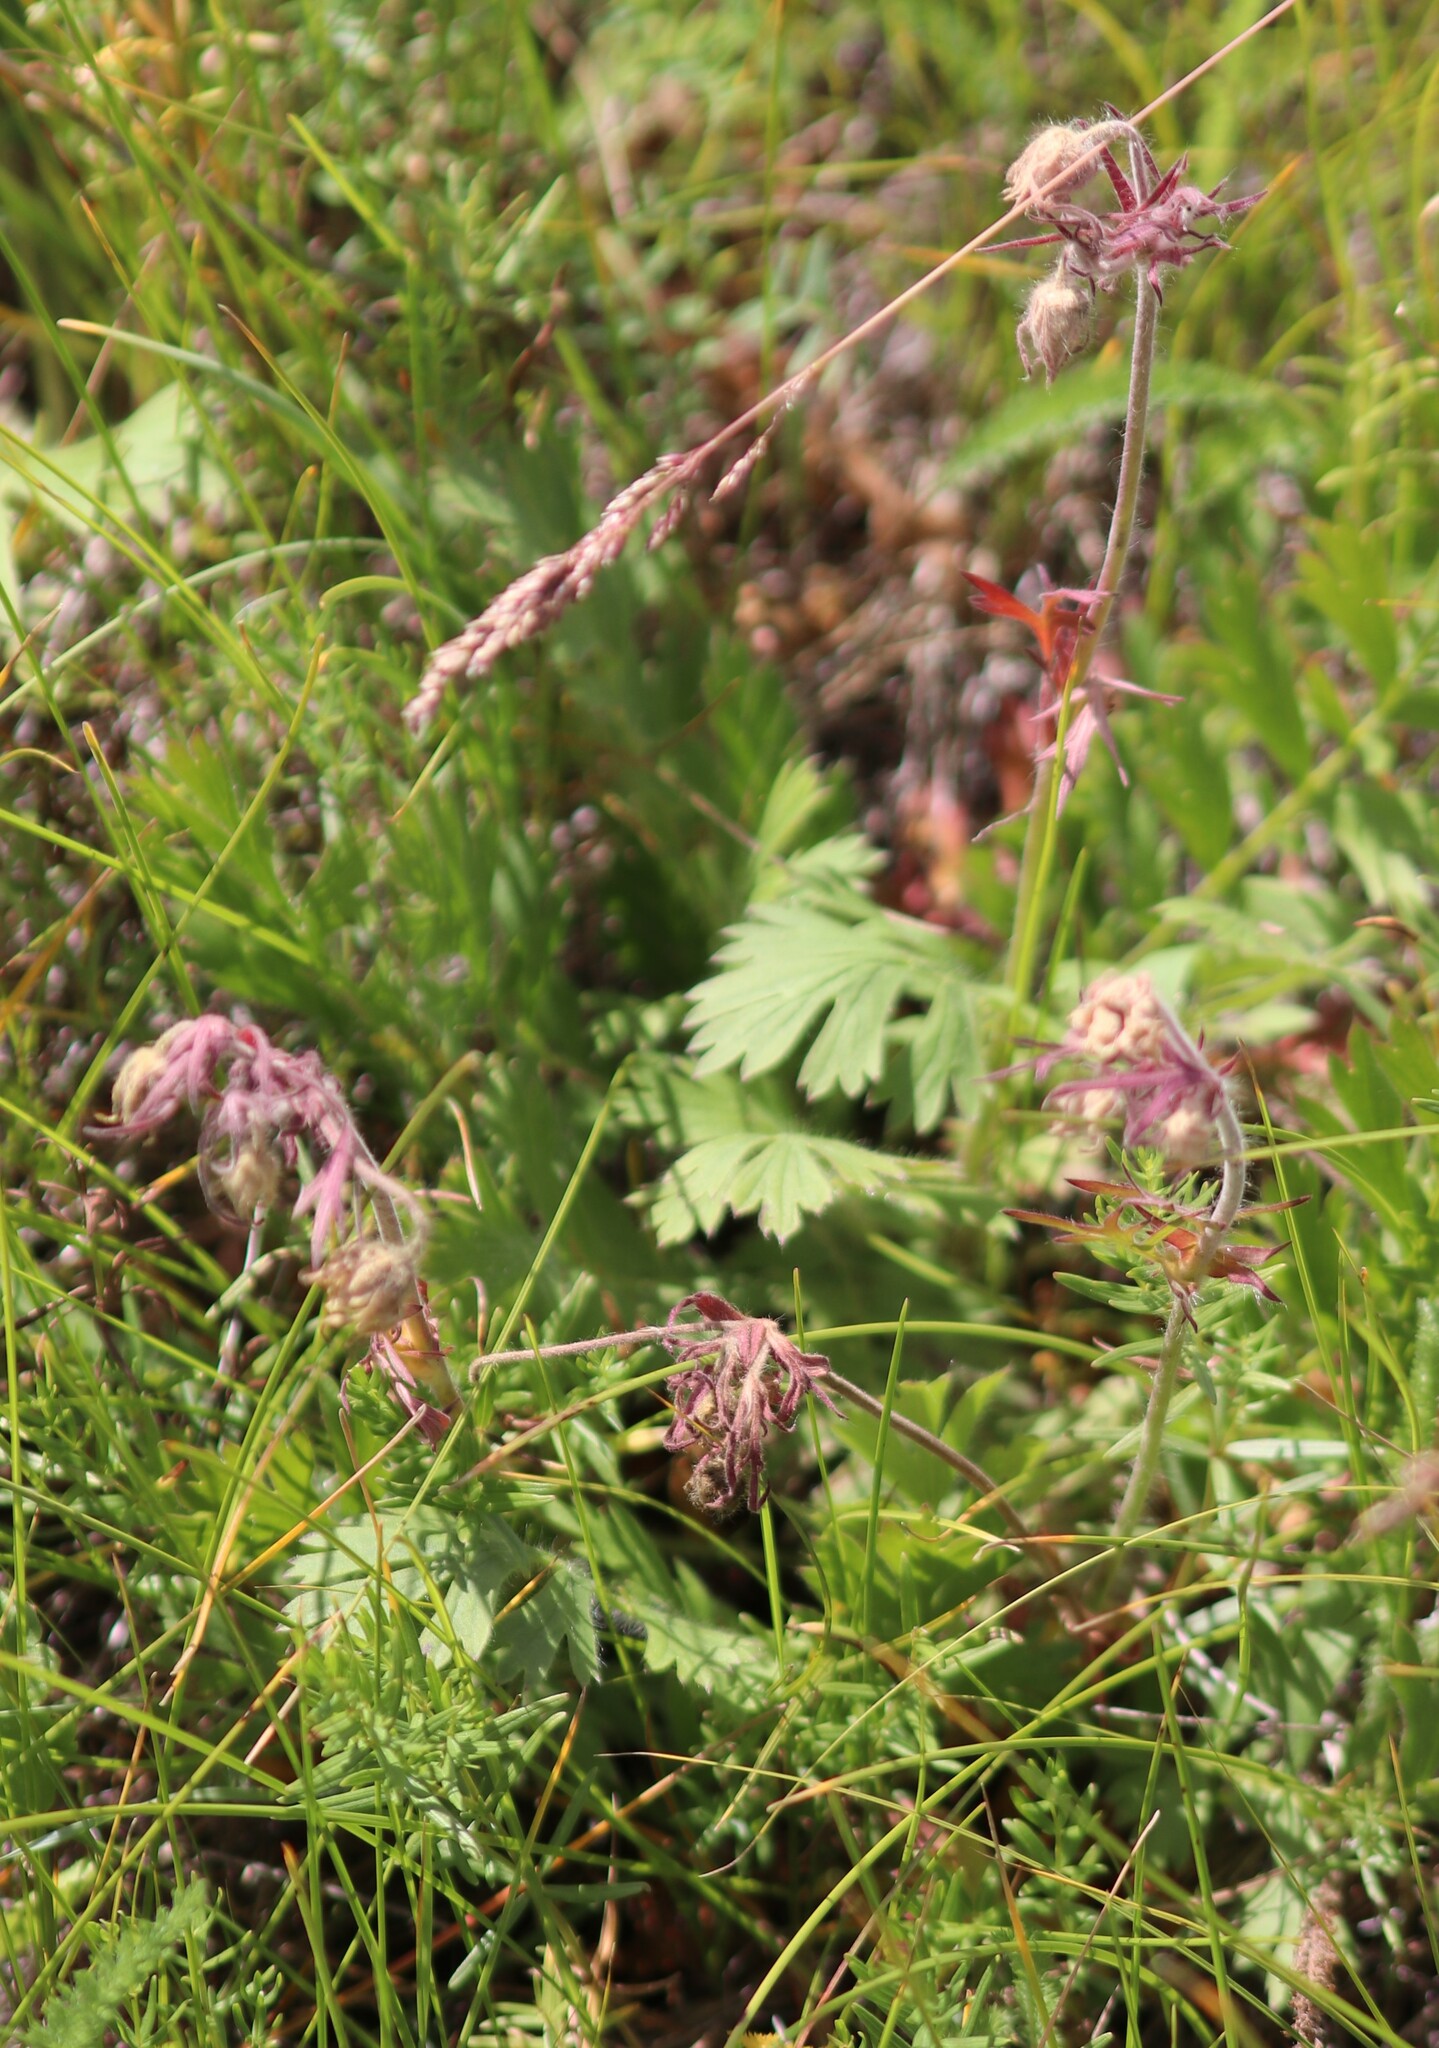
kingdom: Plantae
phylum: Tracheophyta
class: Magnoliopsida
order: Rosales
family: Rosaceae
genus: Geum
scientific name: Geum triflorum
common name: Old man's whiskers
